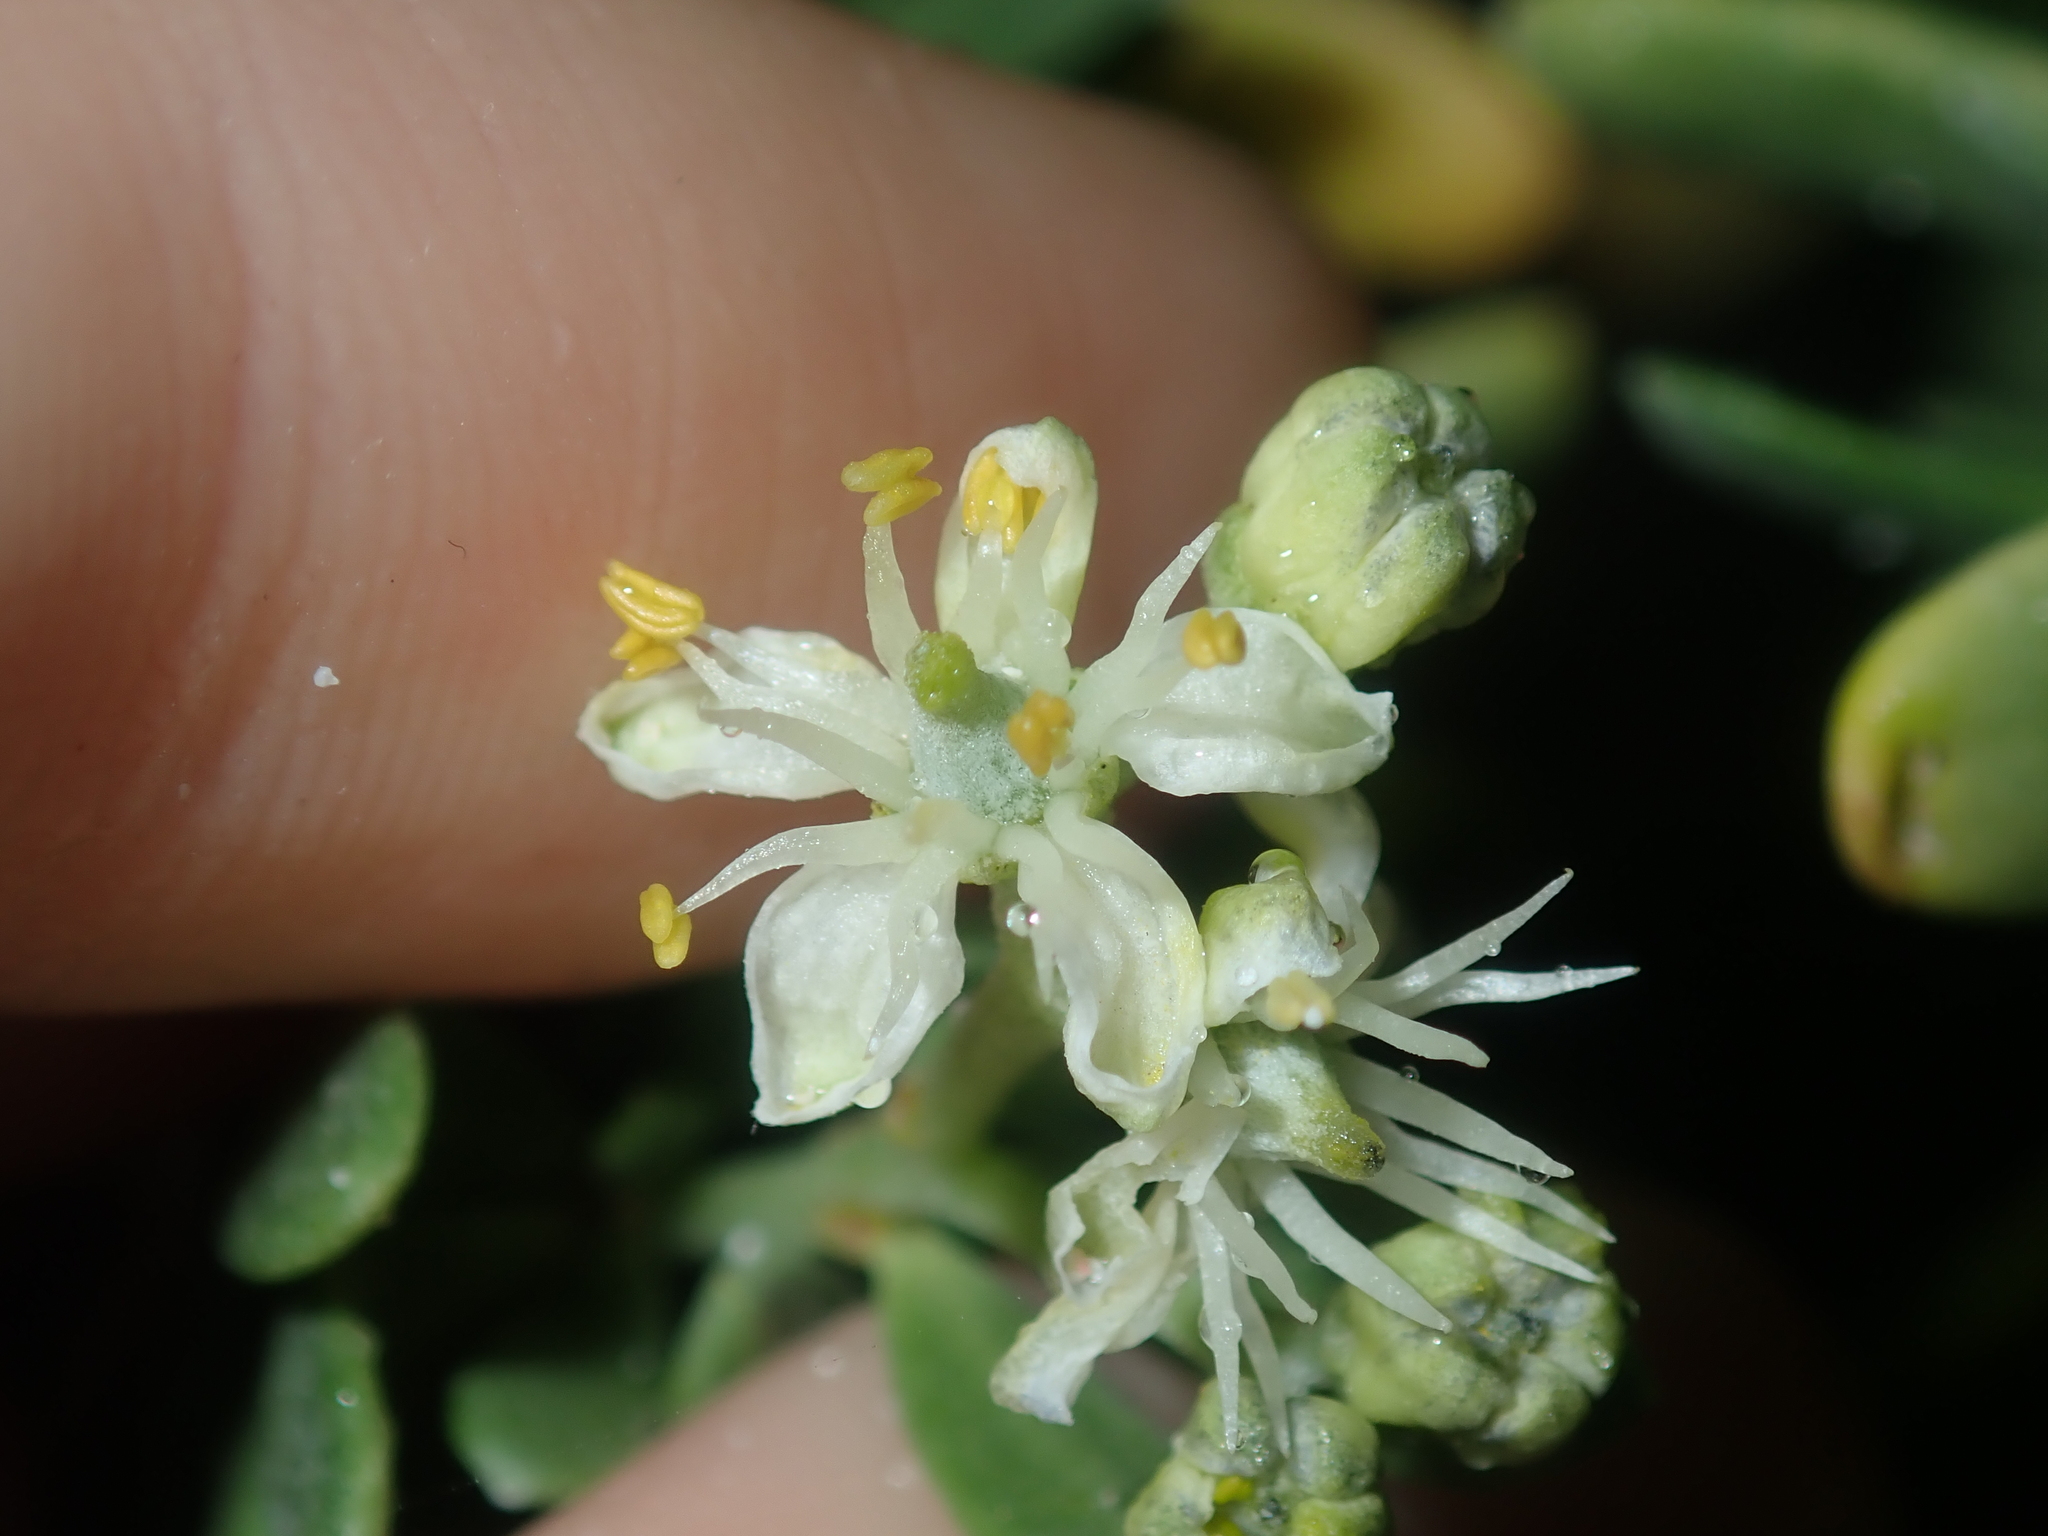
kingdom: Plantae
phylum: Tracheophyta
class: Magnoliopsida
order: Sapindales
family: Nitrariaceae
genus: Nitraria
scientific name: Nitraria billardierei
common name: Dillonbush
